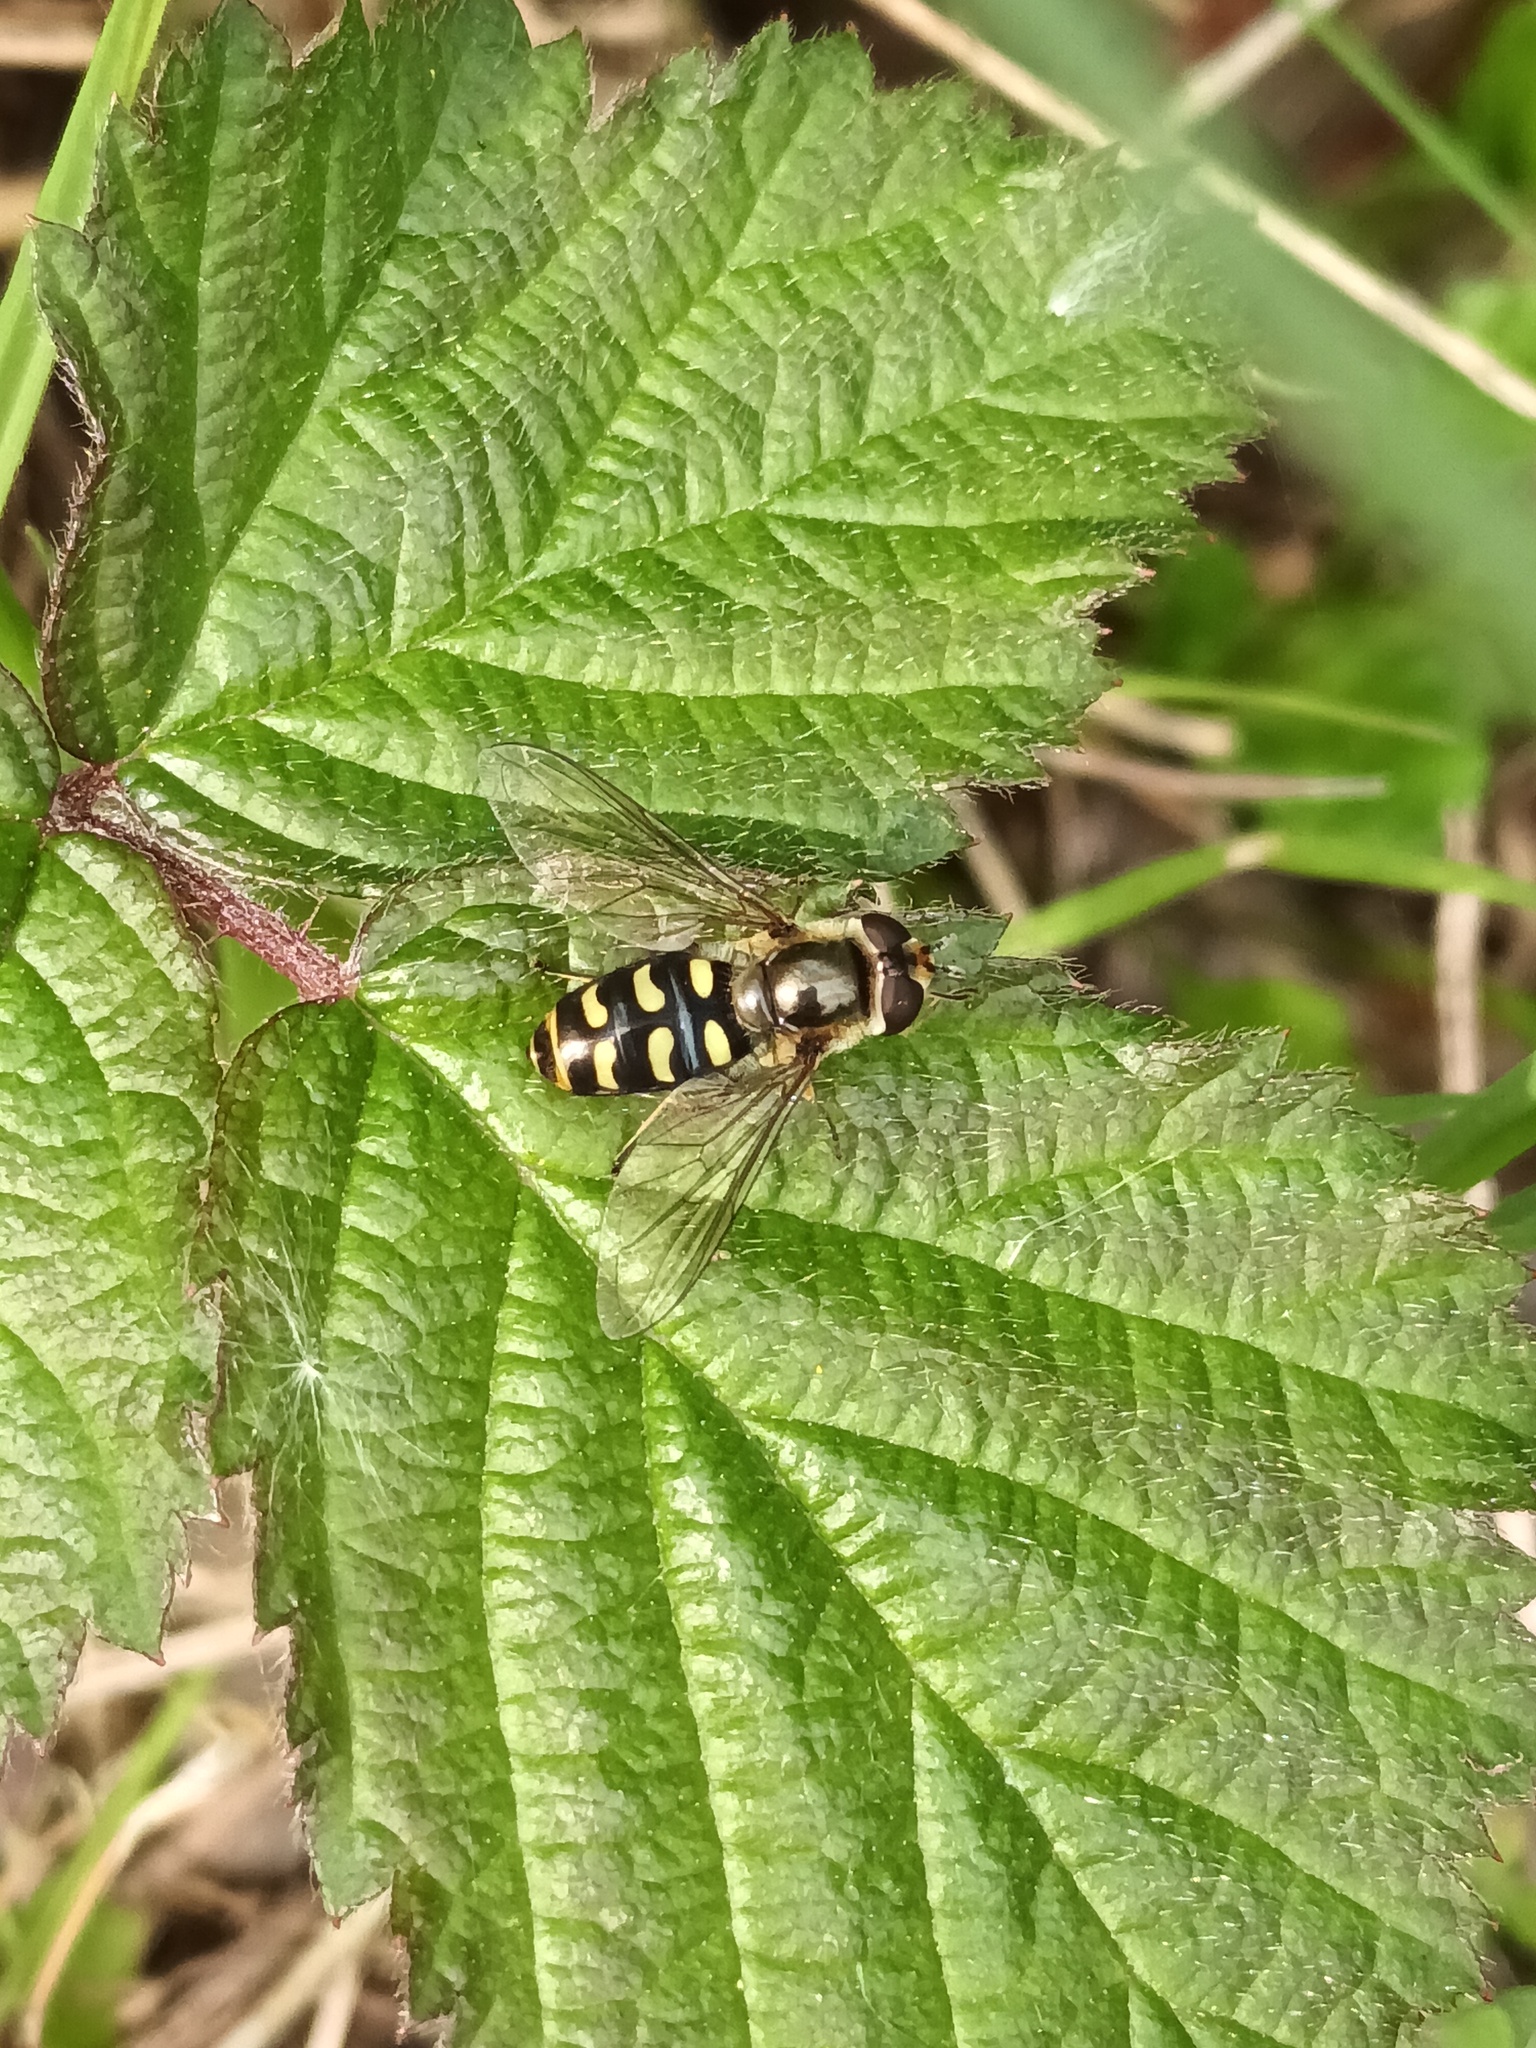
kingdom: Animalia
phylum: Arthropoda
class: Insecta
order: Diptera
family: Syrphidae
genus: Eupeodes
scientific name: Eupeodes luniger
